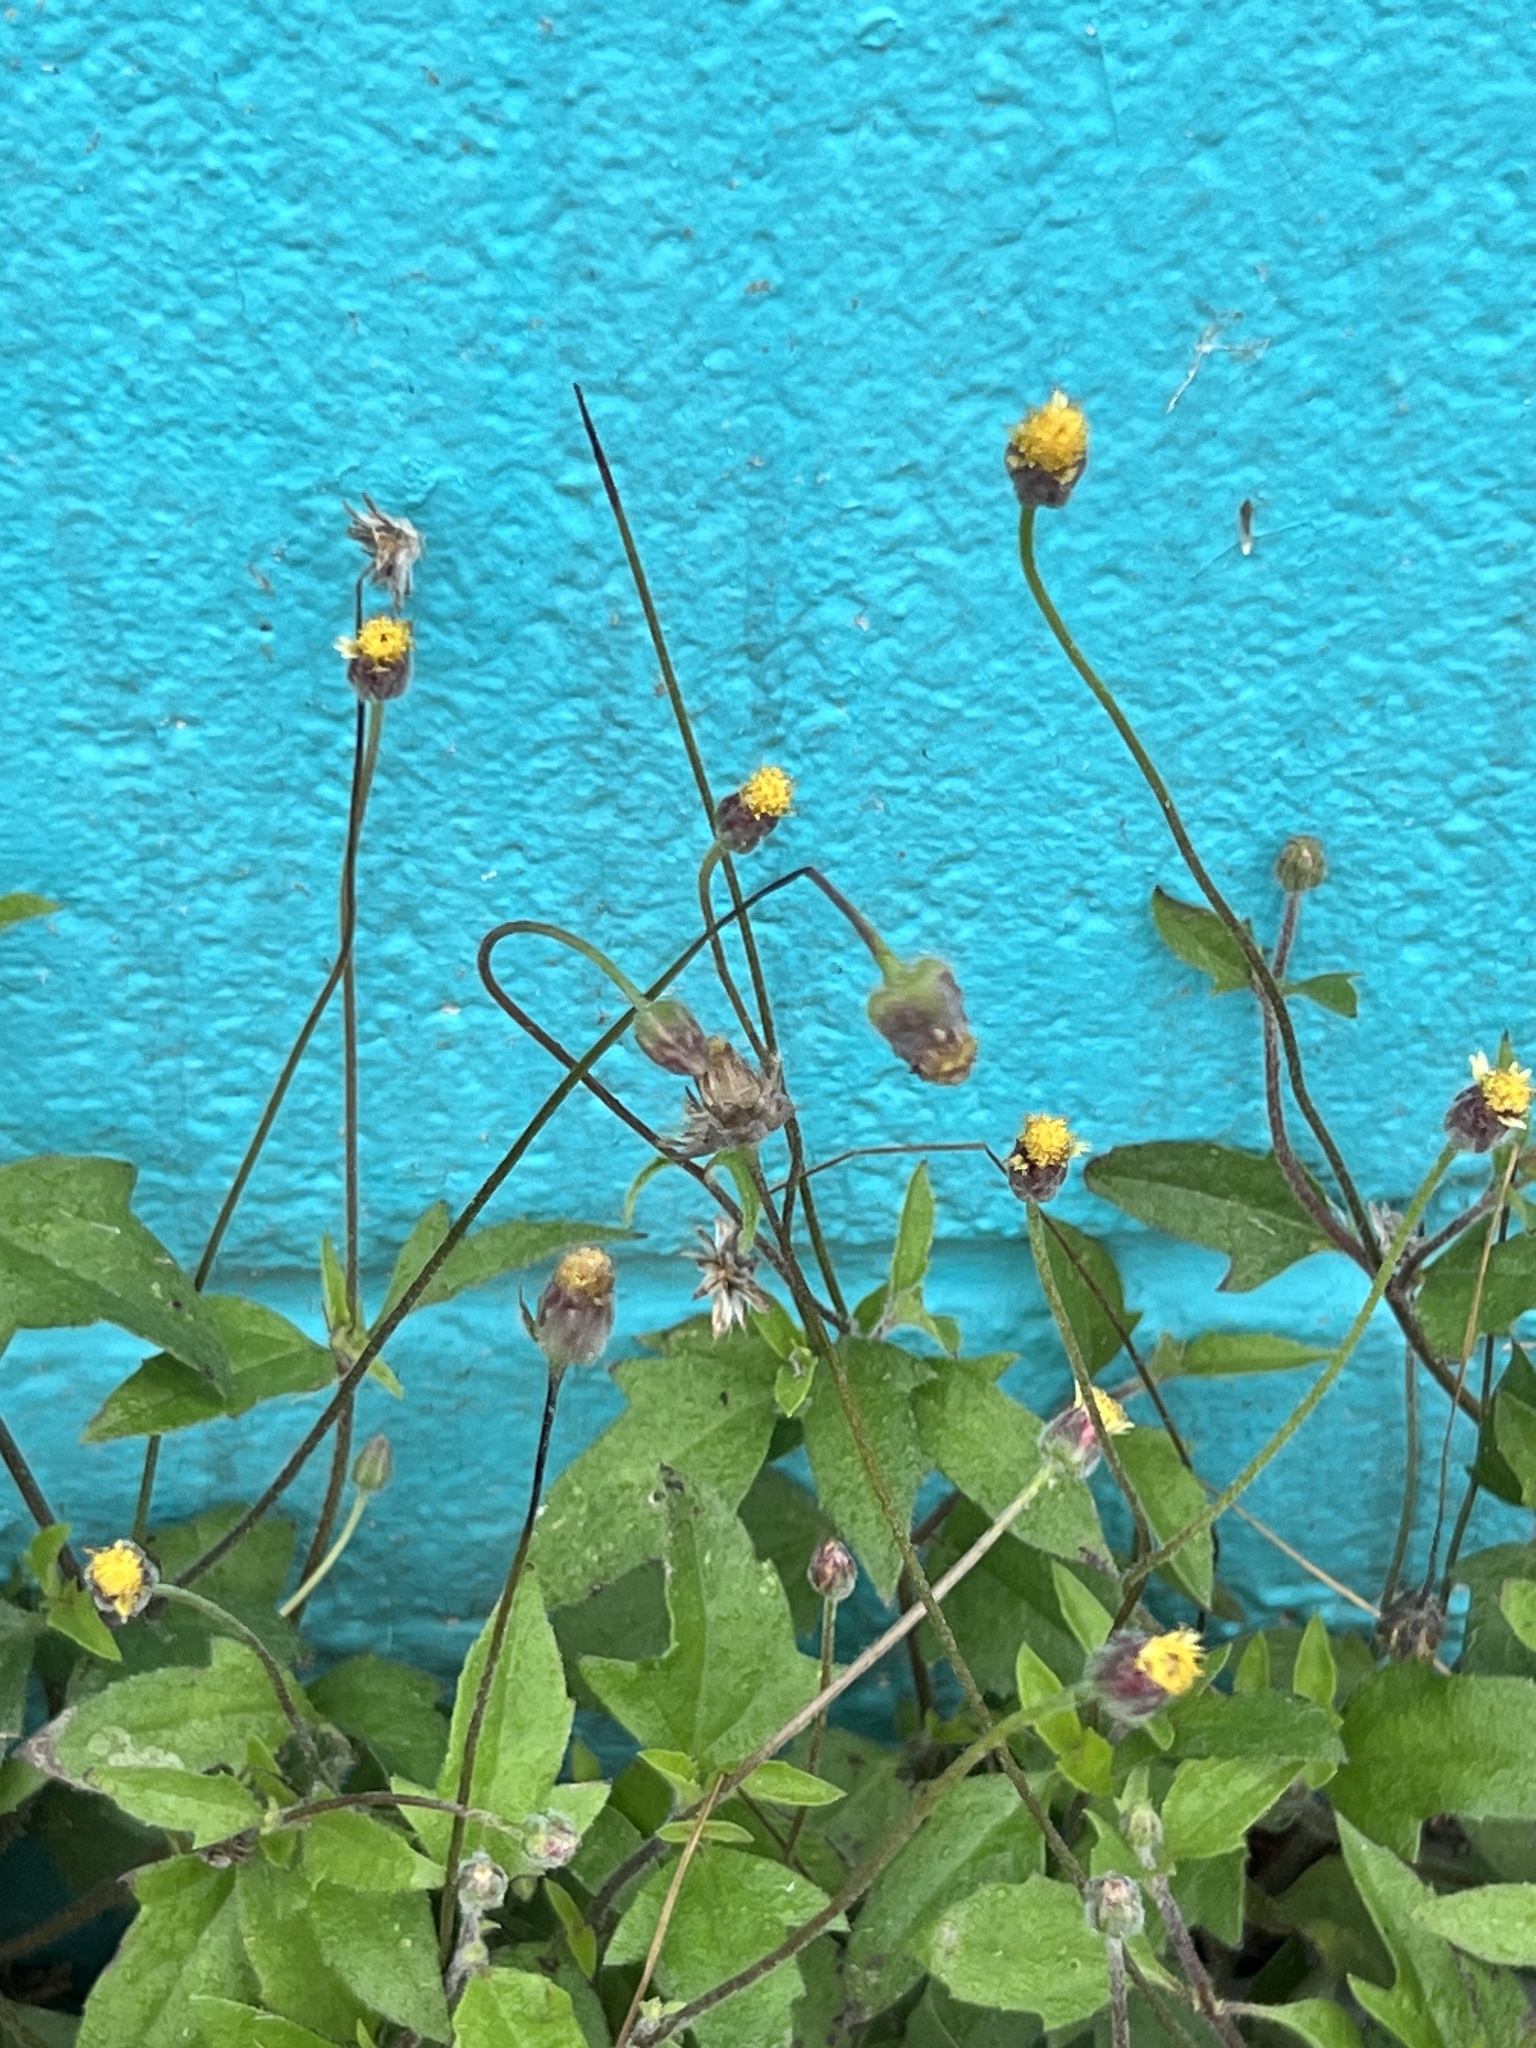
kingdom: Plantae
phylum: Tracheophyta
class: Magnoliopsida
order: Asterales
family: Asteraceae
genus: Tridax
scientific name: Tridax procumbens
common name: Coatbuttons
